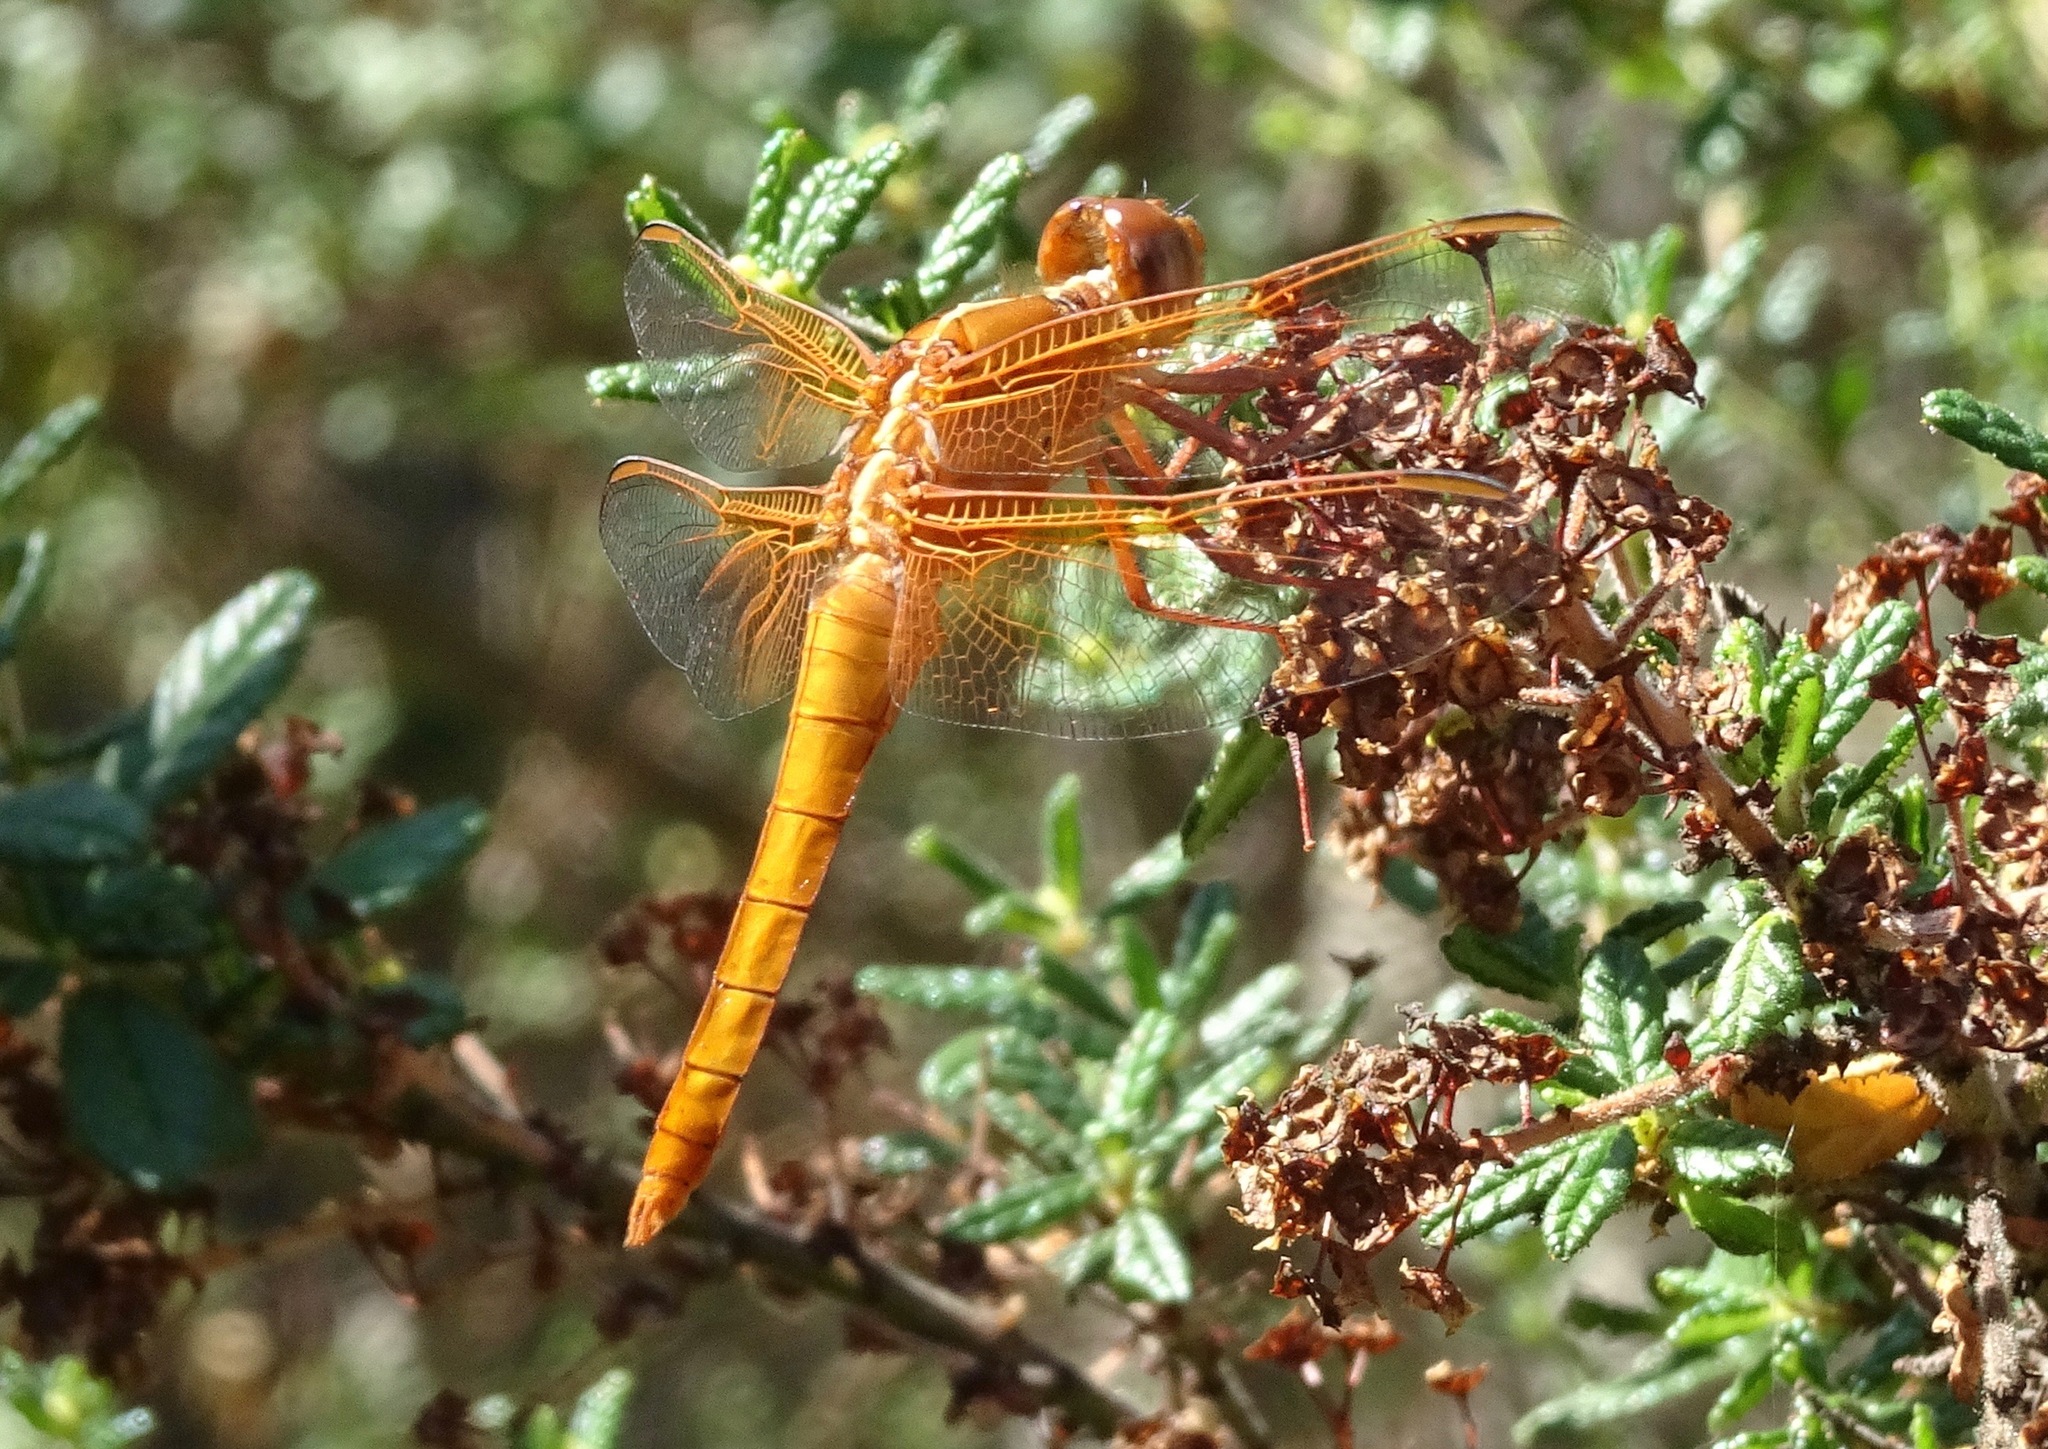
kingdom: Animalia
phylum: Arthropoda
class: Insecta
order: Odonata
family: Libellulidae
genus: Libellula
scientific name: Libellula saturata
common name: Flame skimmer
